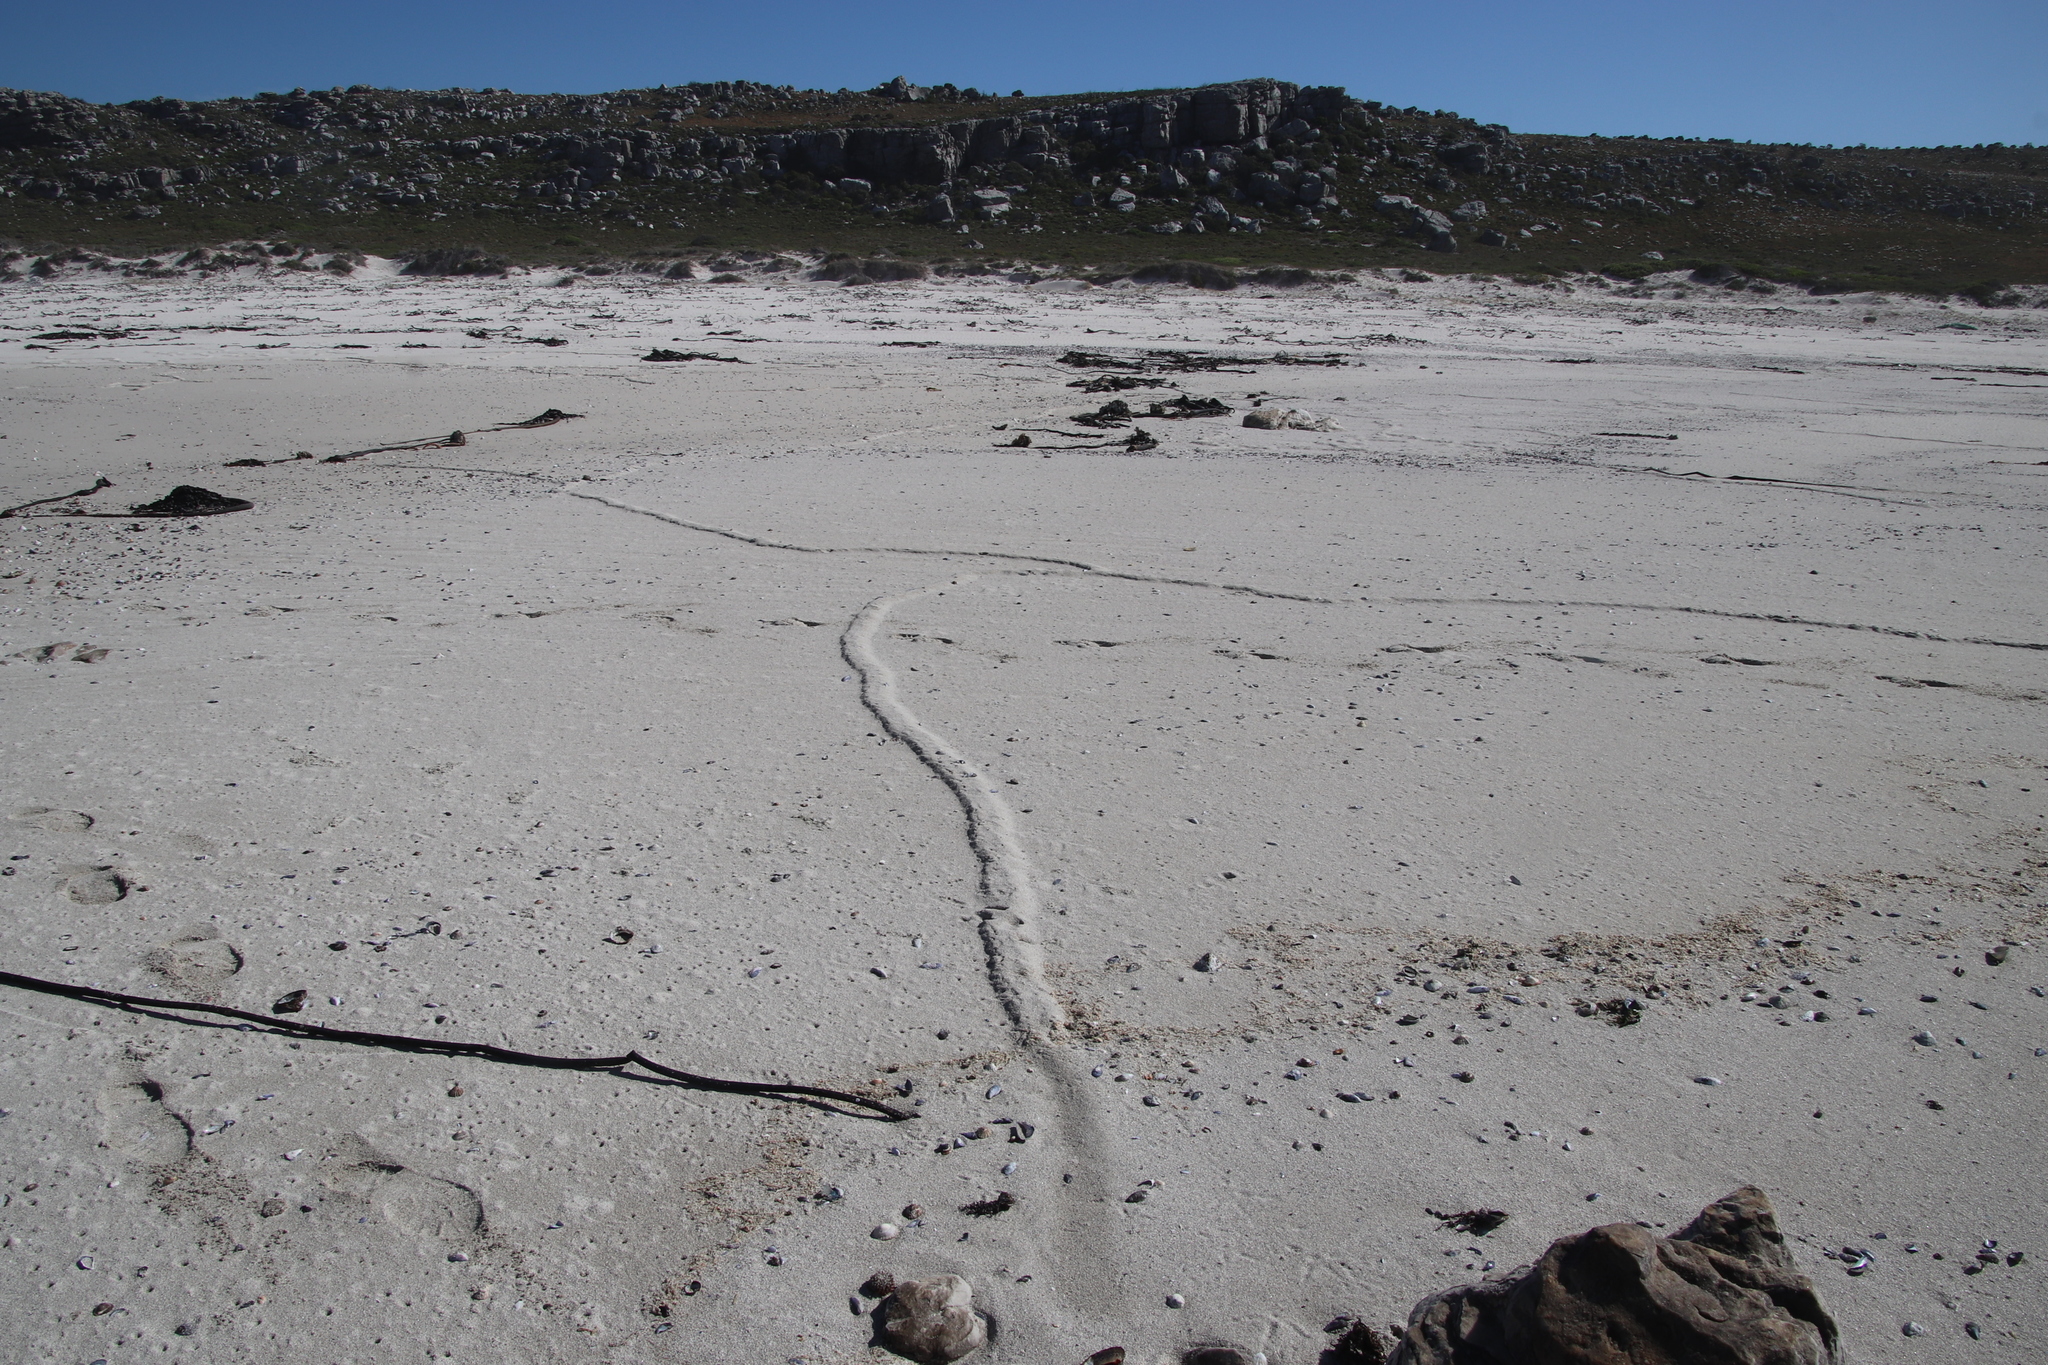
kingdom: Animalia
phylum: Chordata
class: Mammalia
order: Afrosoricida
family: Chrysochloridae
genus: Chrysochloris
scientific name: Chrysochloris asiatica
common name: Cape golden mole
